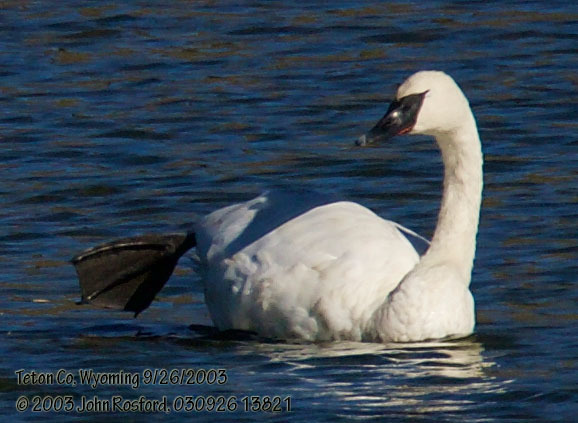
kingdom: Animalia
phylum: Chordata
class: Aves
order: Anseriformes
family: Anatidae
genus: Cygnus
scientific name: Cygnus buccinator
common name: Trumpeter swan
